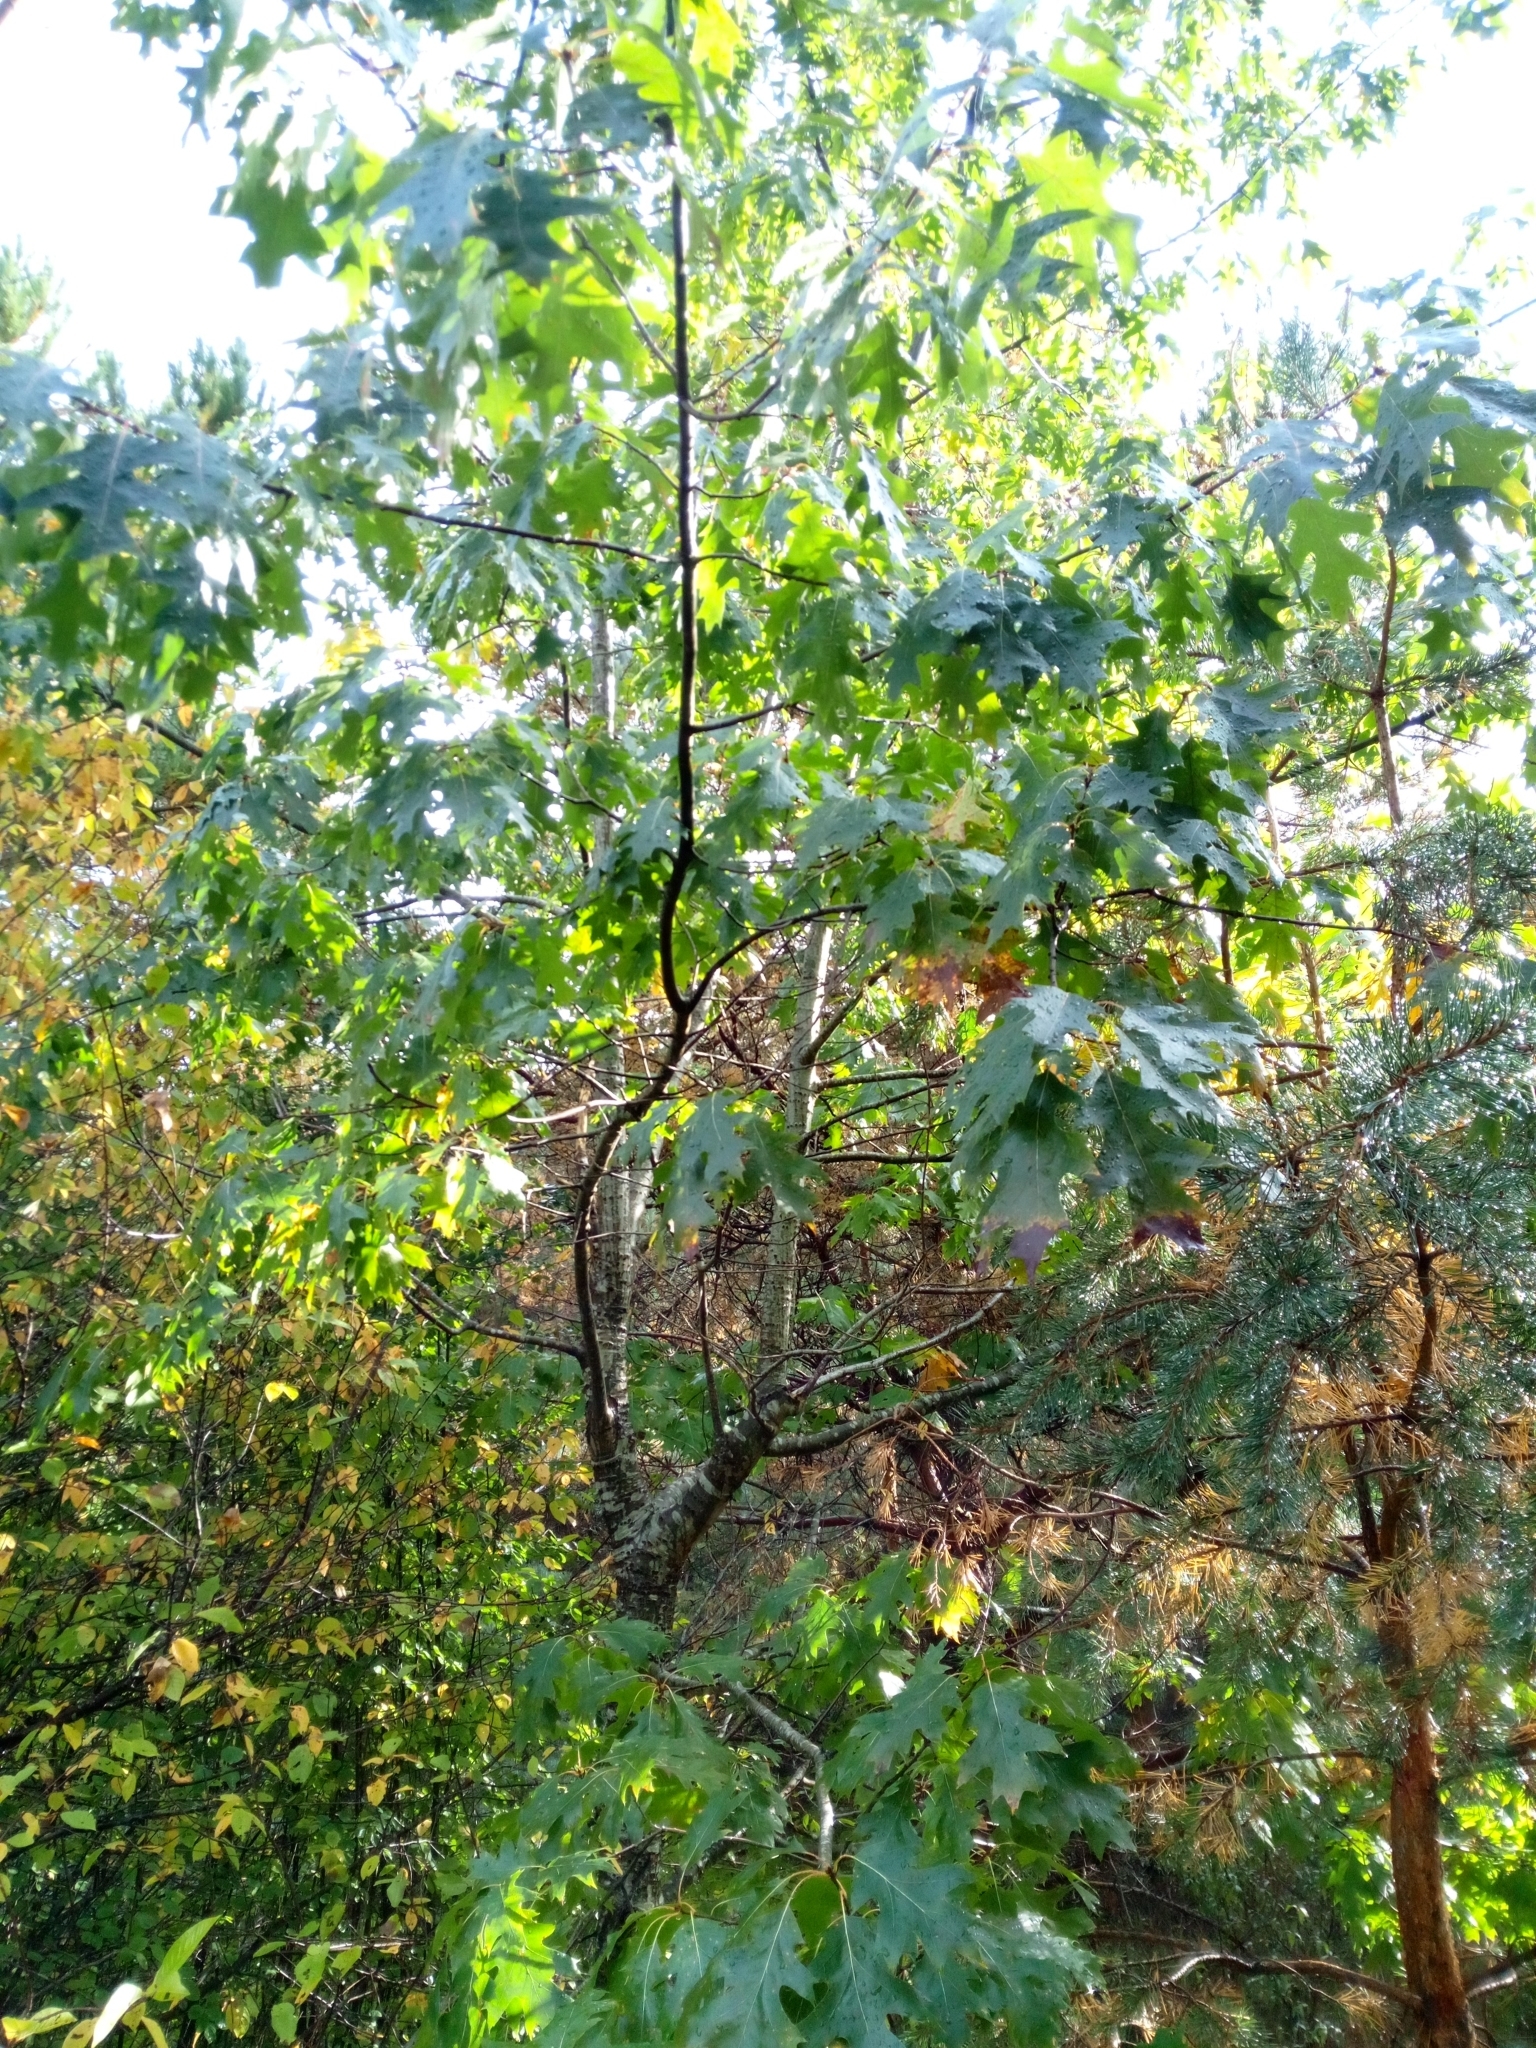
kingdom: Plantae
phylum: Tracheophyta
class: Magnoliopsida
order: Fagales
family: Fagaceae
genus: Quercus
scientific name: Quercus rubra
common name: Red oak
